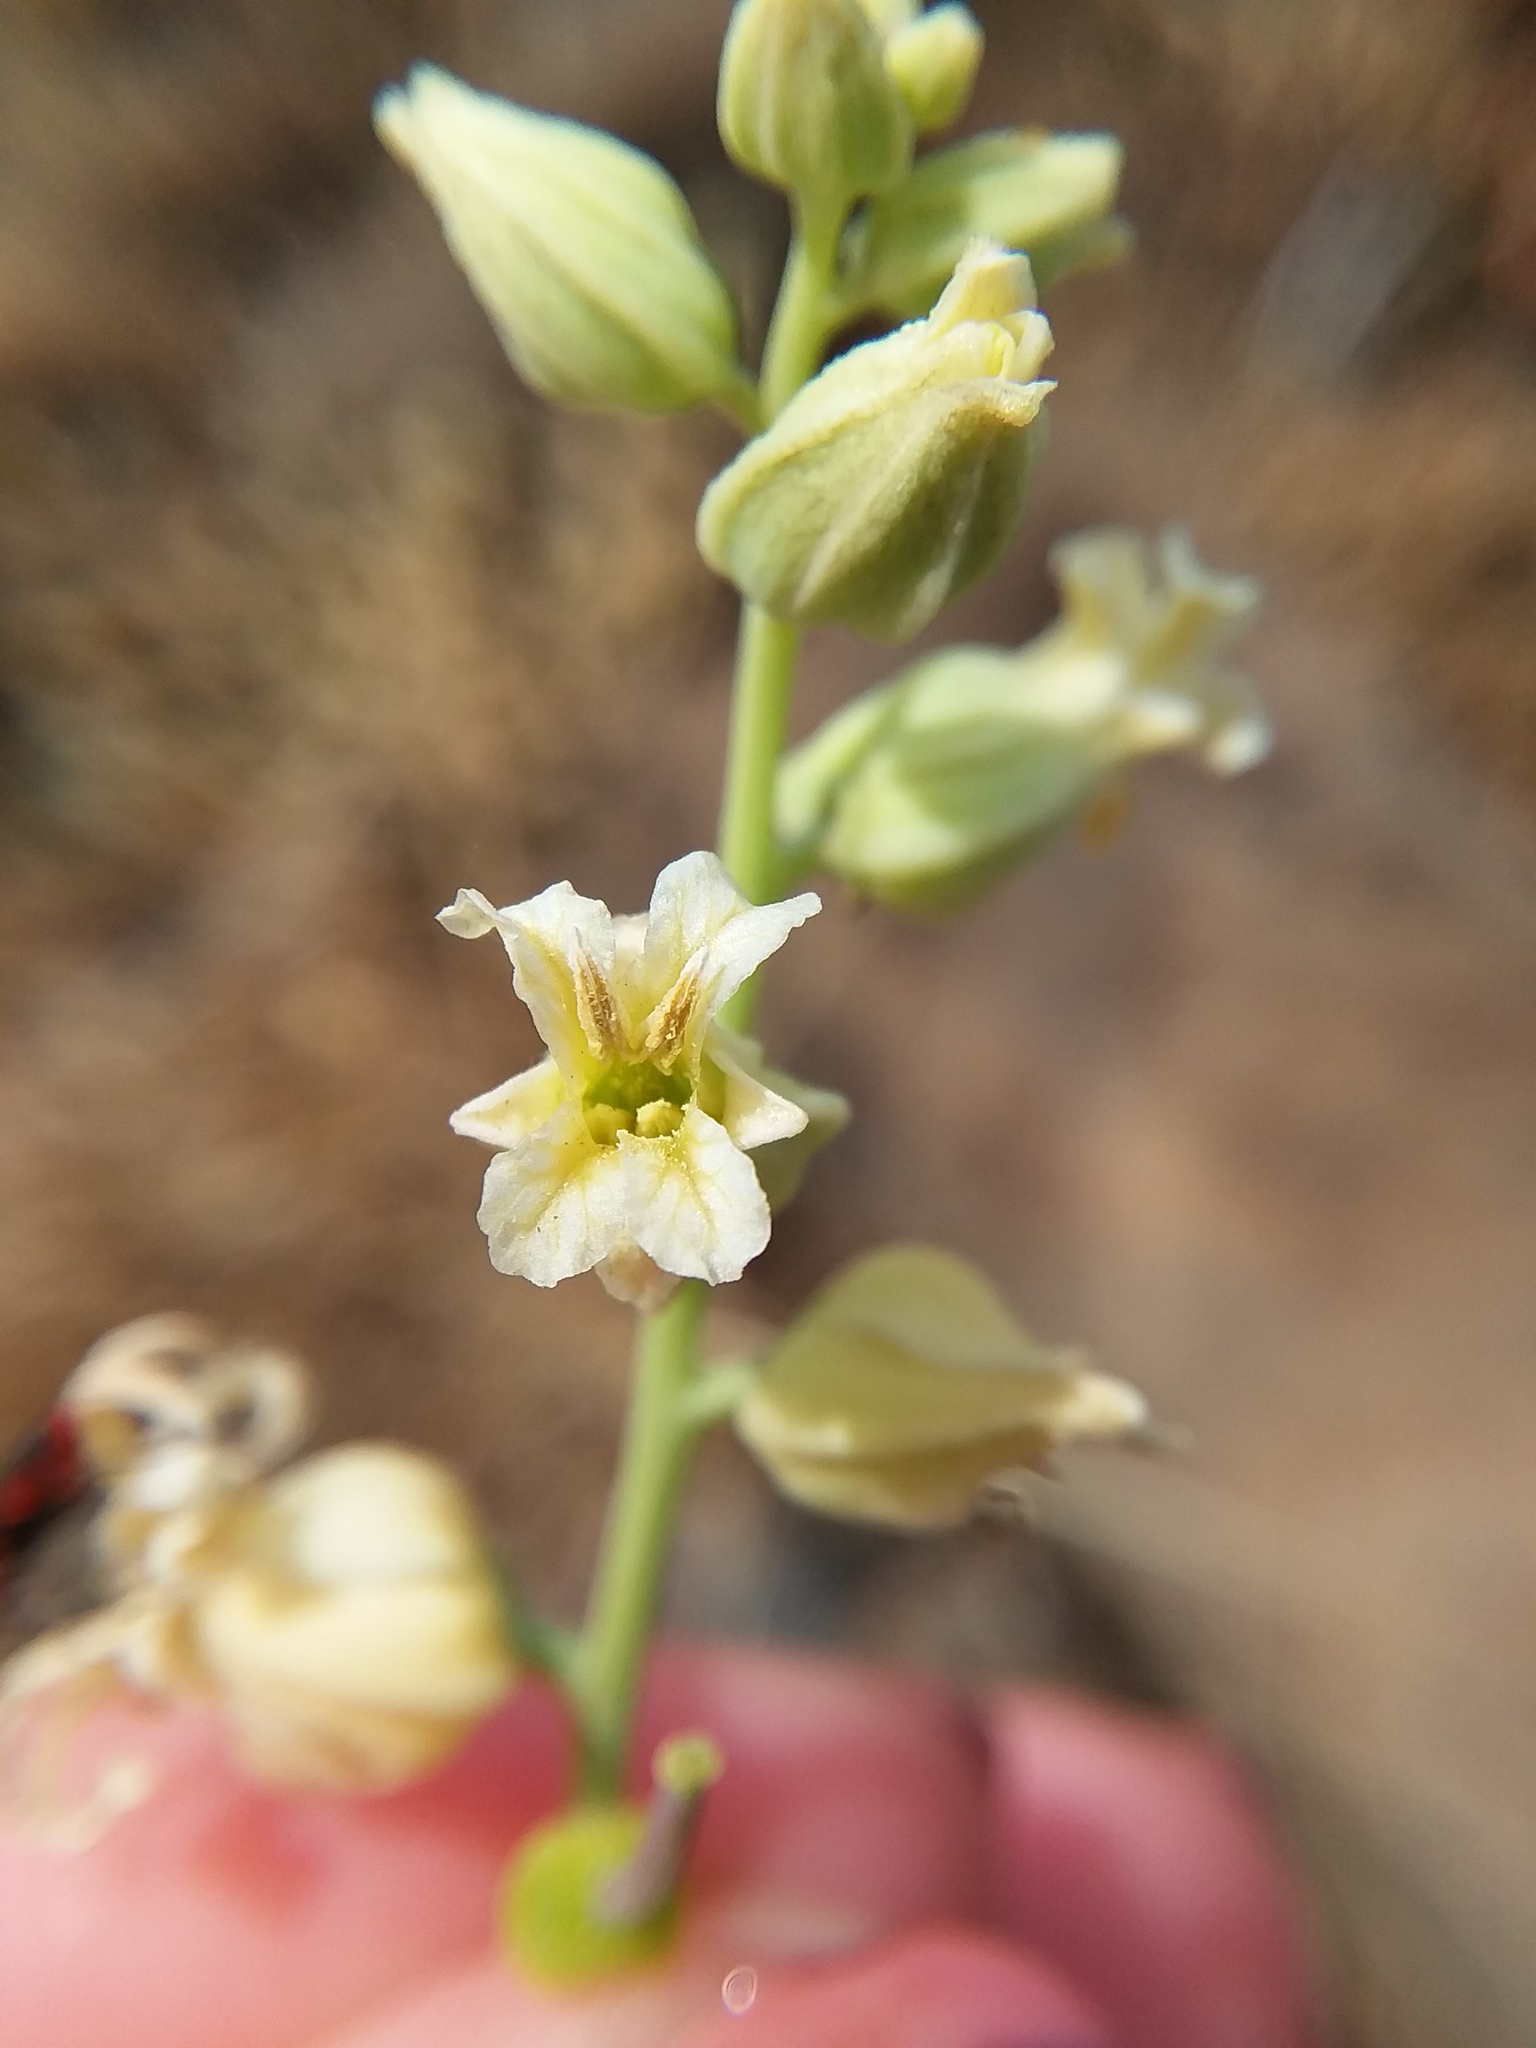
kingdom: Plantae
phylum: Tracheophyta
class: Magnoliopsida
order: Brassicales
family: Brassicaceae
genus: Streptanthus
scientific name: Streptanthus tortuosus
